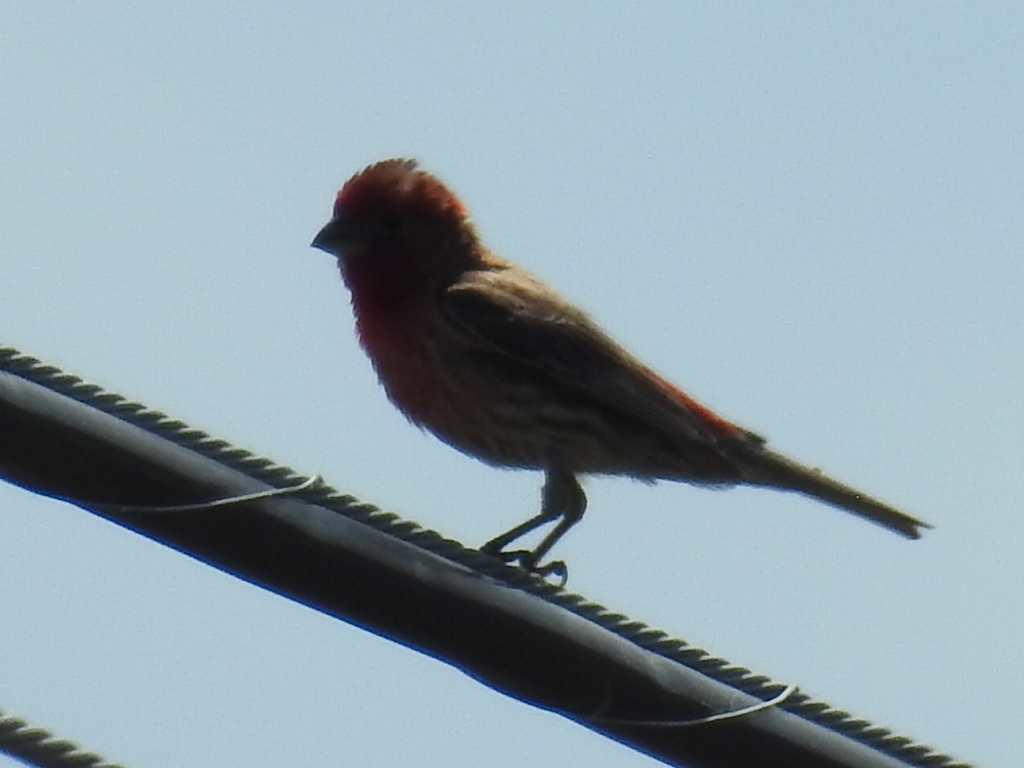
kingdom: Animalia
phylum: Chordata
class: Aves
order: Passeriformes
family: Fringillidae
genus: Haemorhous
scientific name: Haemorhous mexicanus
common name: House finch
